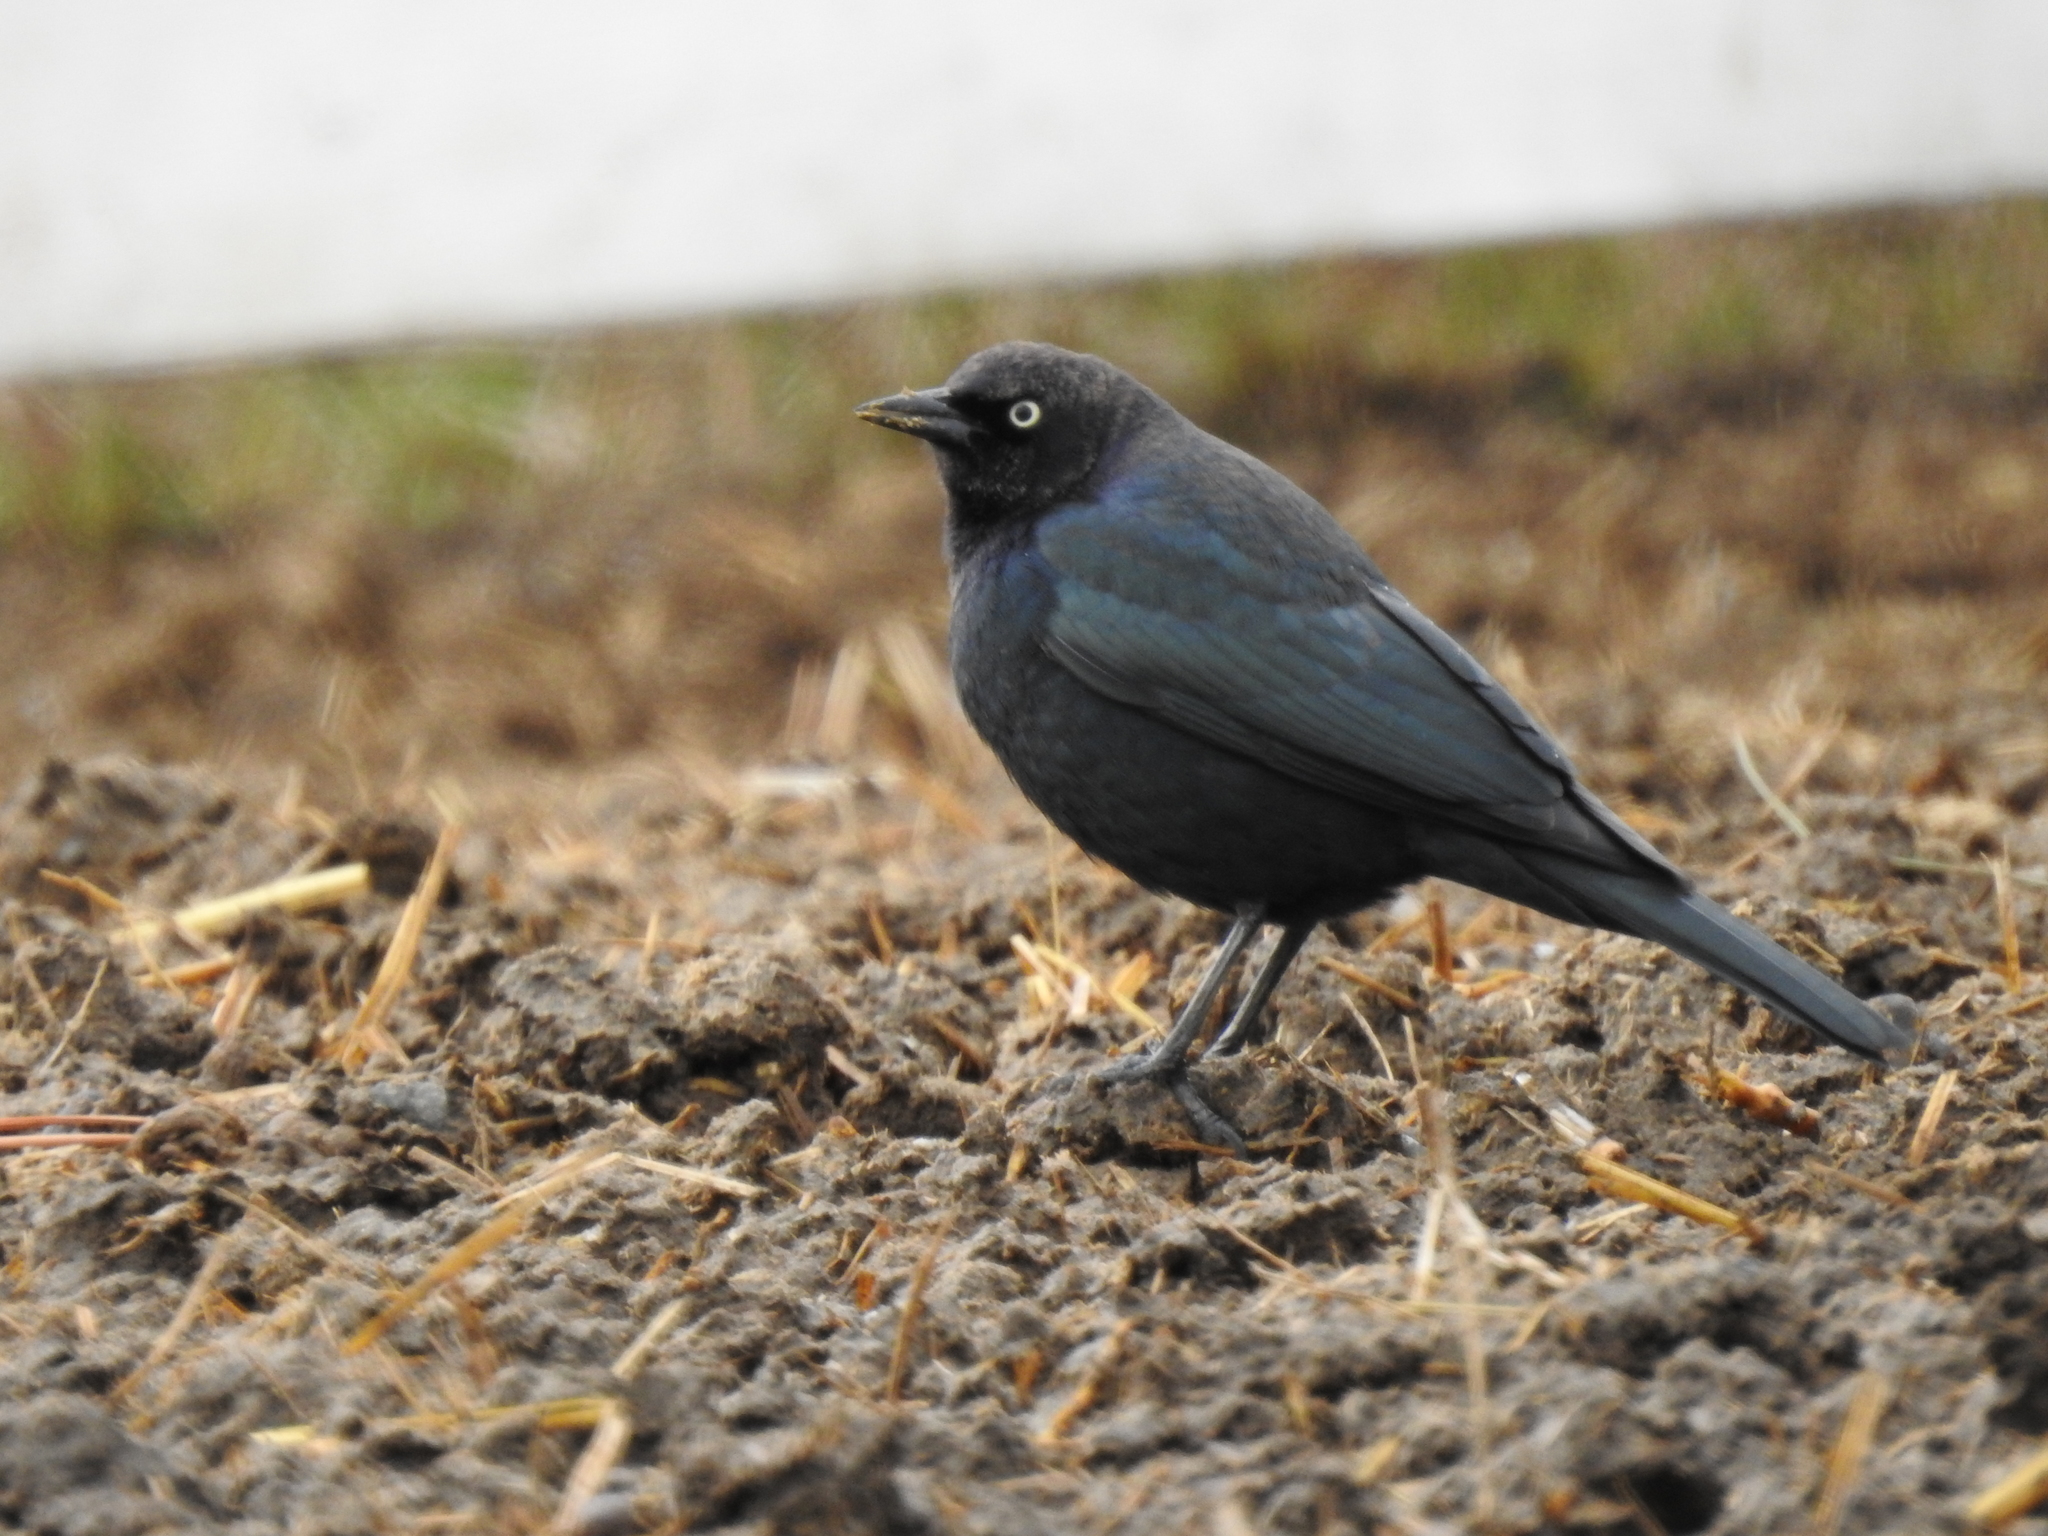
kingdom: Animalia
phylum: Chordata
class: Aves
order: Passeriformes
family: Icteridae
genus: Euphagus
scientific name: Euphagus cyanocephalus
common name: Brewer's blackbird
